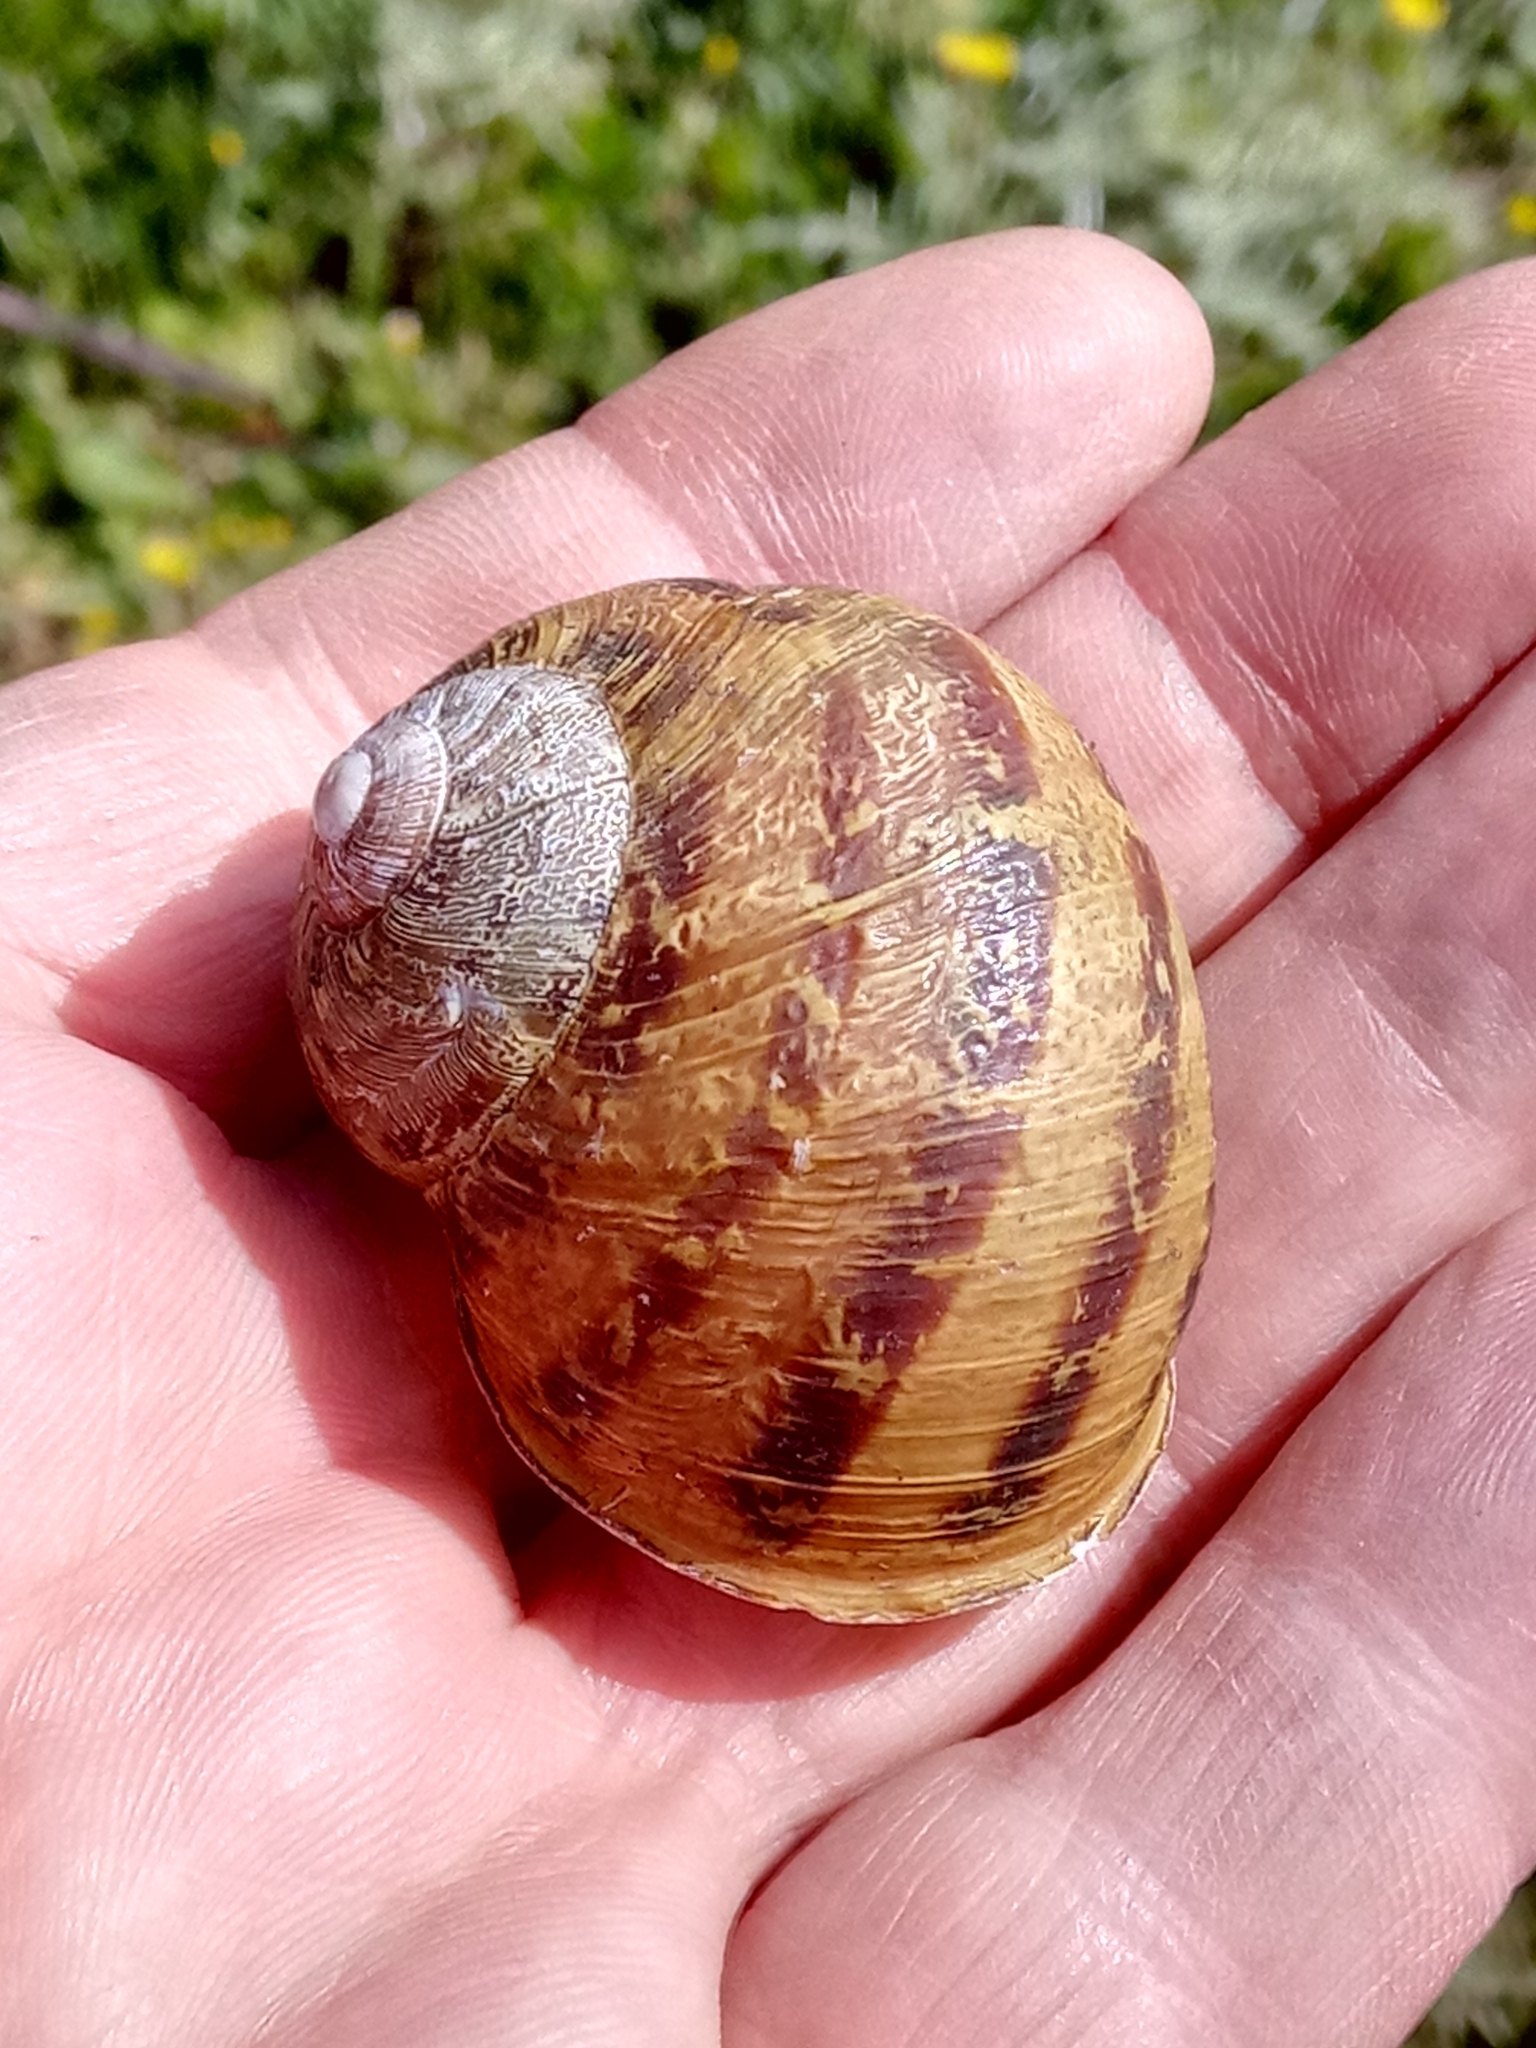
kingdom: Animalia
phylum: Mollusca
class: Gastropoda
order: Stylommatophora
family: Helicidae
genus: Cornu
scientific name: Cornu aspersum
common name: Brown garden snail
